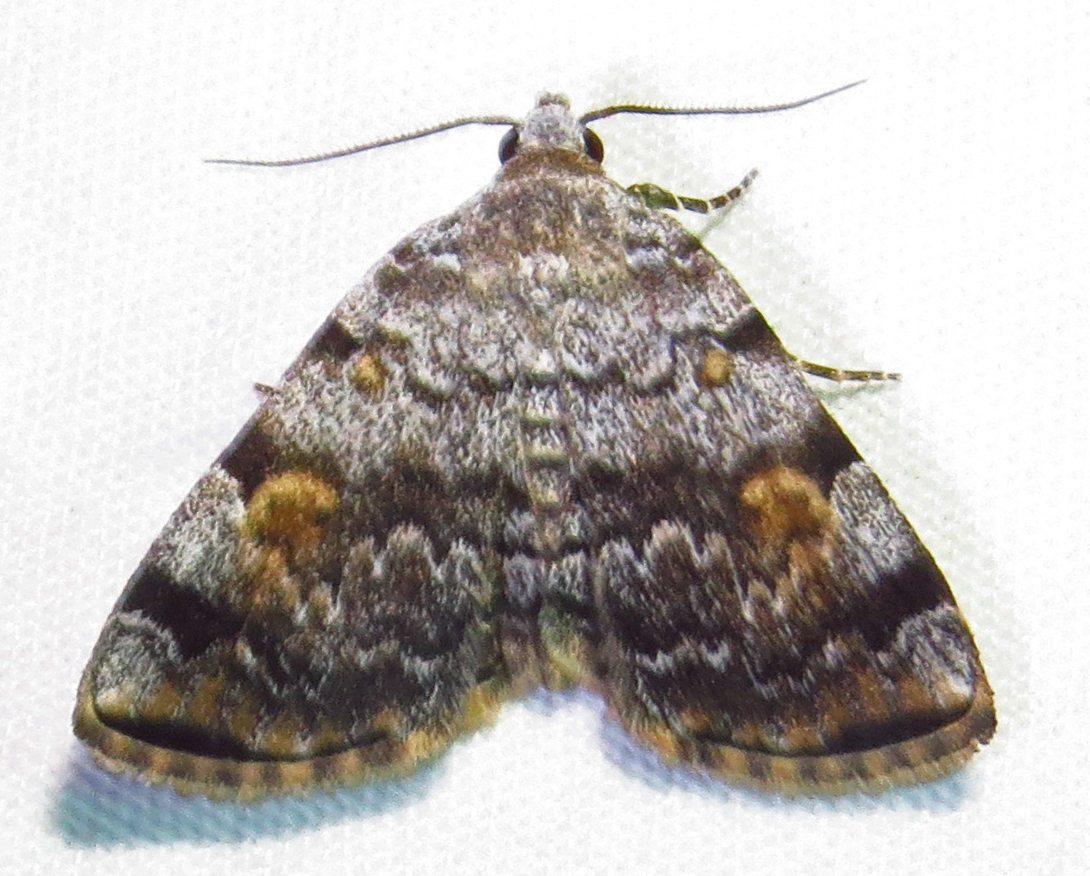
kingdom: Animalia
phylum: Arthropoda
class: Insecta
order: Lepidoptera
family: Erebidae
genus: Idia
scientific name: Idia americalis
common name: American idia moth
